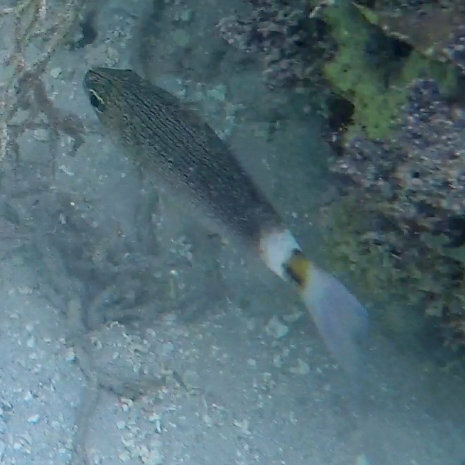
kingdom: Animalia
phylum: Chordata
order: Perciformes
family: Apogonidae
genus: Cheilodipterus
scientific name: Cheilodipterus lachneri
